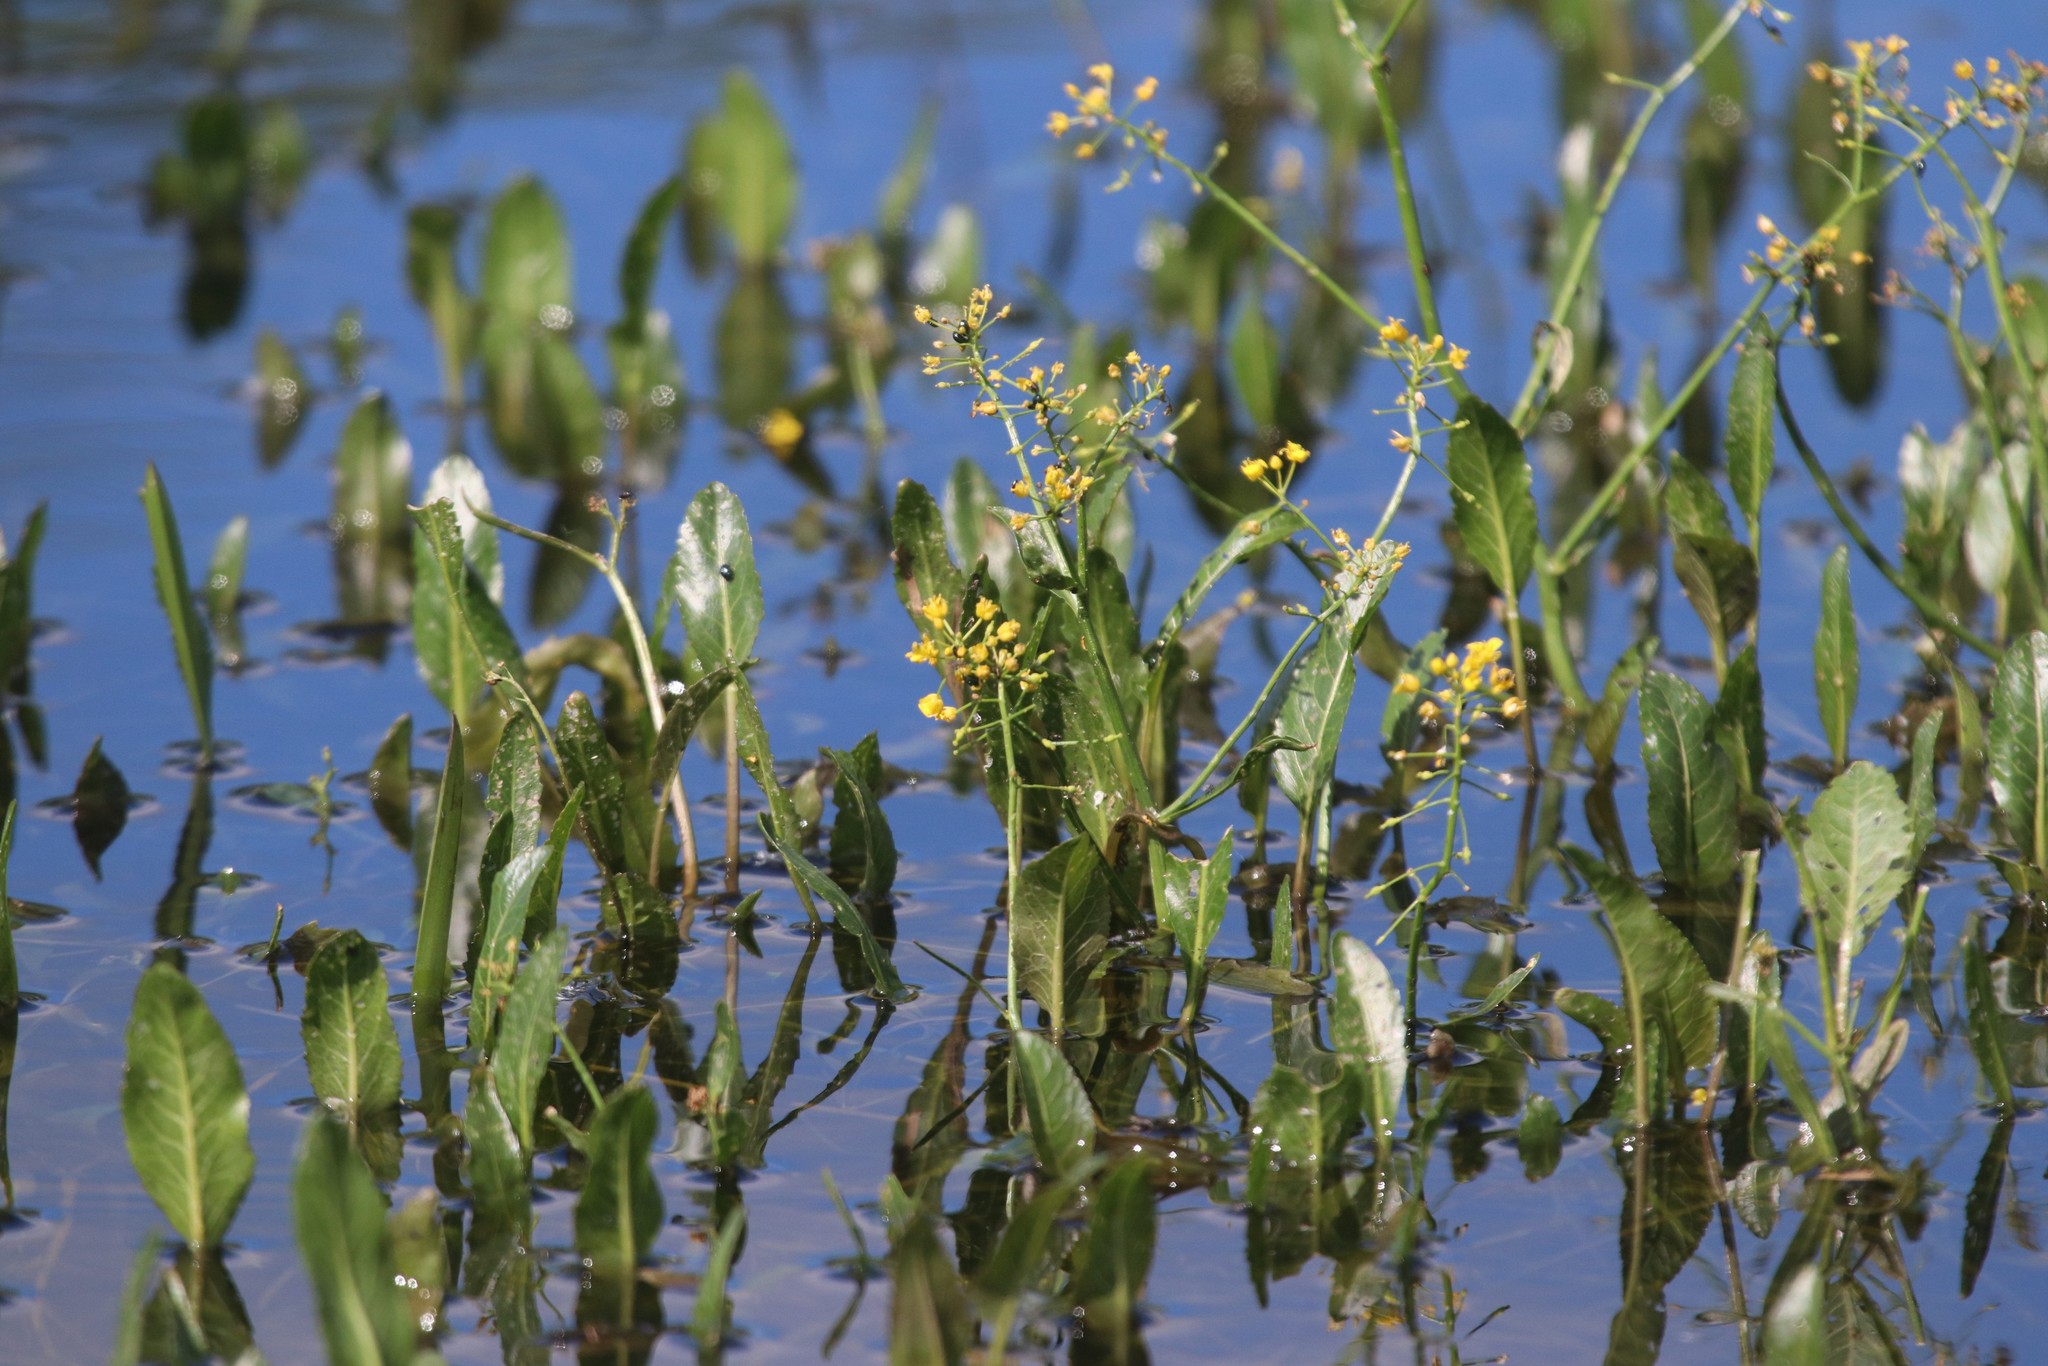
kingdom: Plantae
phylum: Tracheophyta
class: Magnoliopsida
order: Brassicales
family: Brassicaceae
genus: Rorippa
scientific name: Rorippa amphibia
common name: Great yellow-cress
